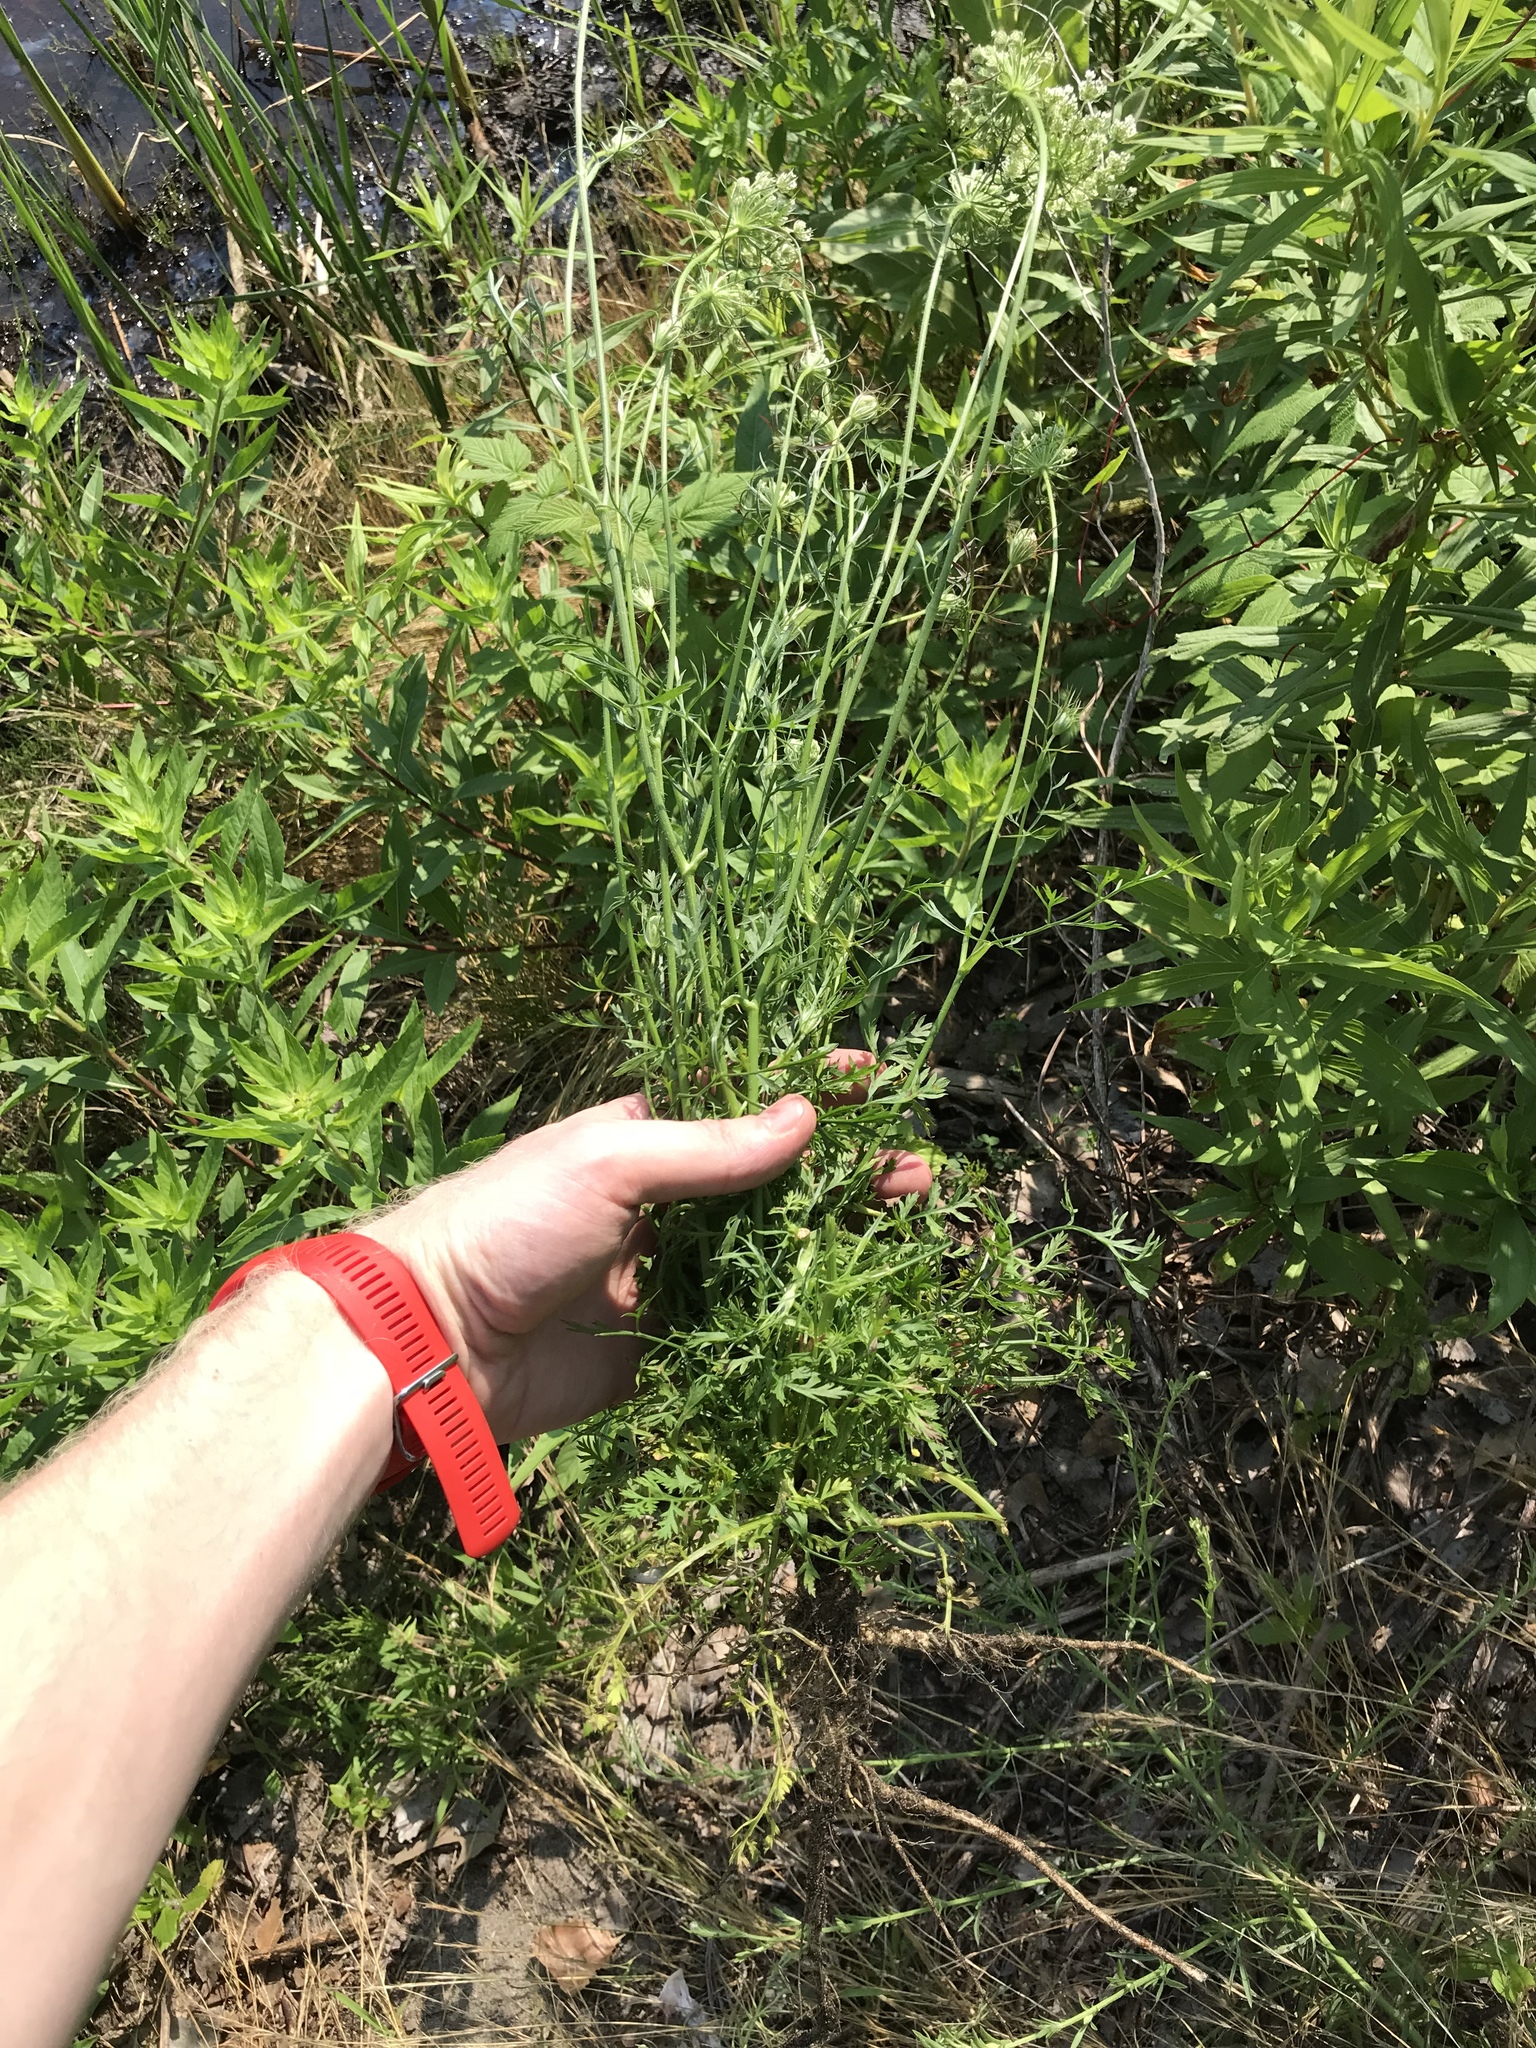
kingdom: Plantae
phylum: Tracheophyta
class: Magnoliopsida
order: Apiales
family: Apiaceae
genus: Daucus
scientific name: Daucus carota
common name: Wild carrot
